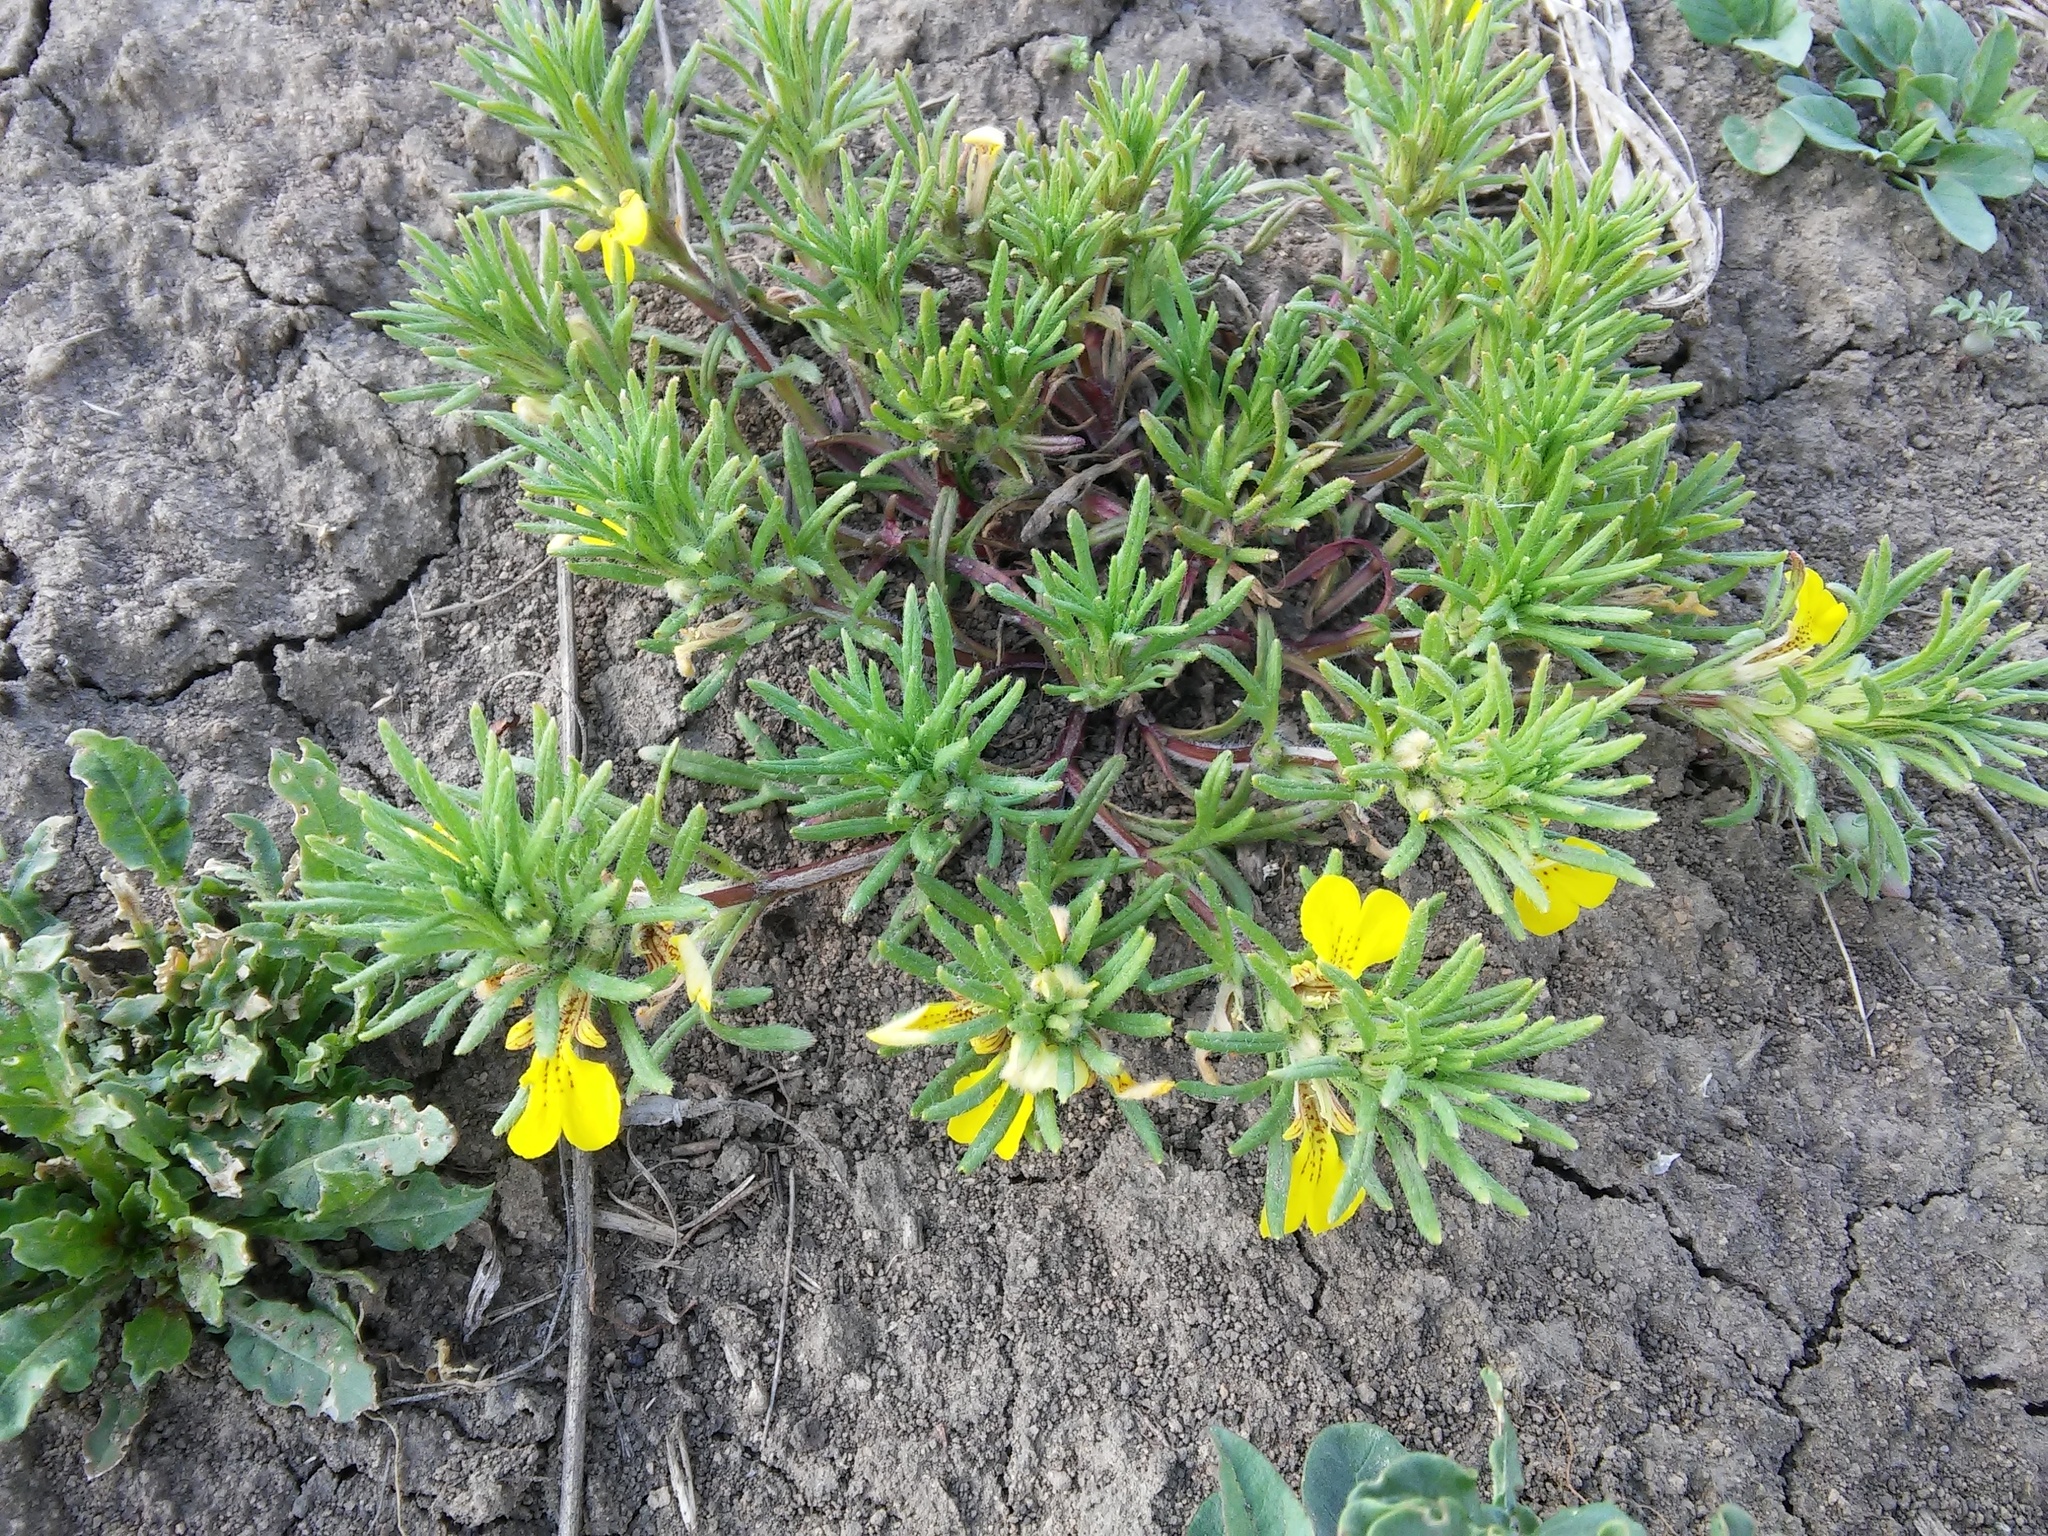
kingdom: Plantae
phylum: Tracheophyta
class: Magnoliopsida
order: Lamiales
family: Lamiaceae
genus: Ajuga
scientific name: Ajuga chamaepitys
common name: Ground-pine
